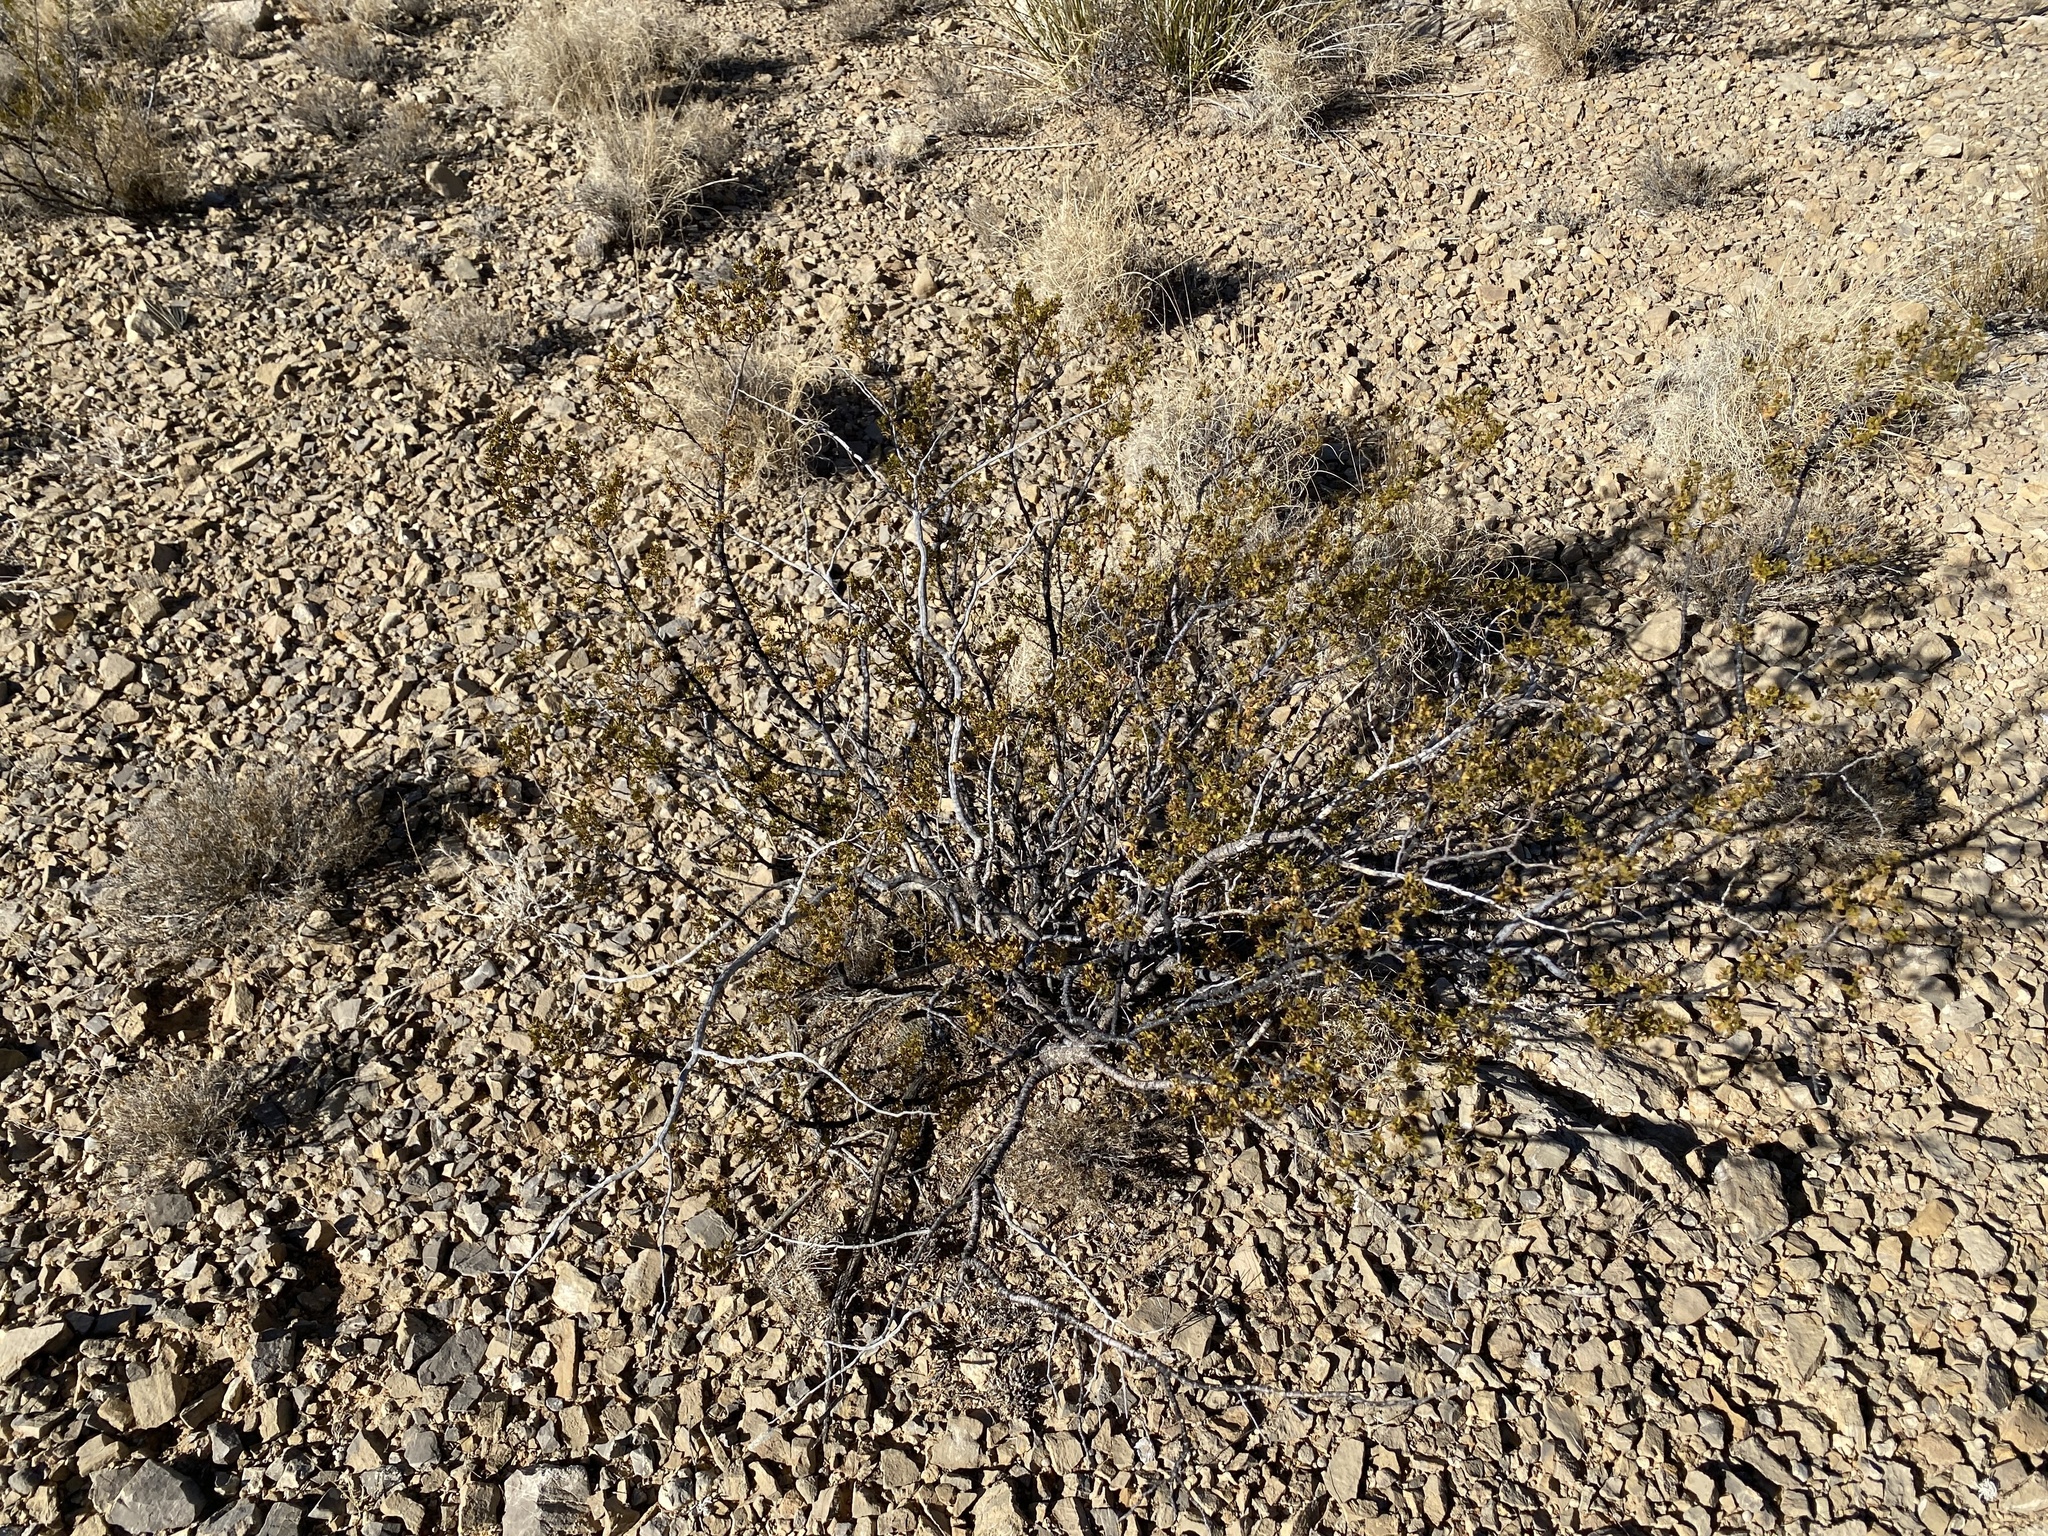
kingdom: Plantae
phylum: Tracheophyta
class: Magnoliopsida
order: Zygophyllales
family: Zygophyllaceae
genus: Larrea
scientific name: Larrea tridentata
